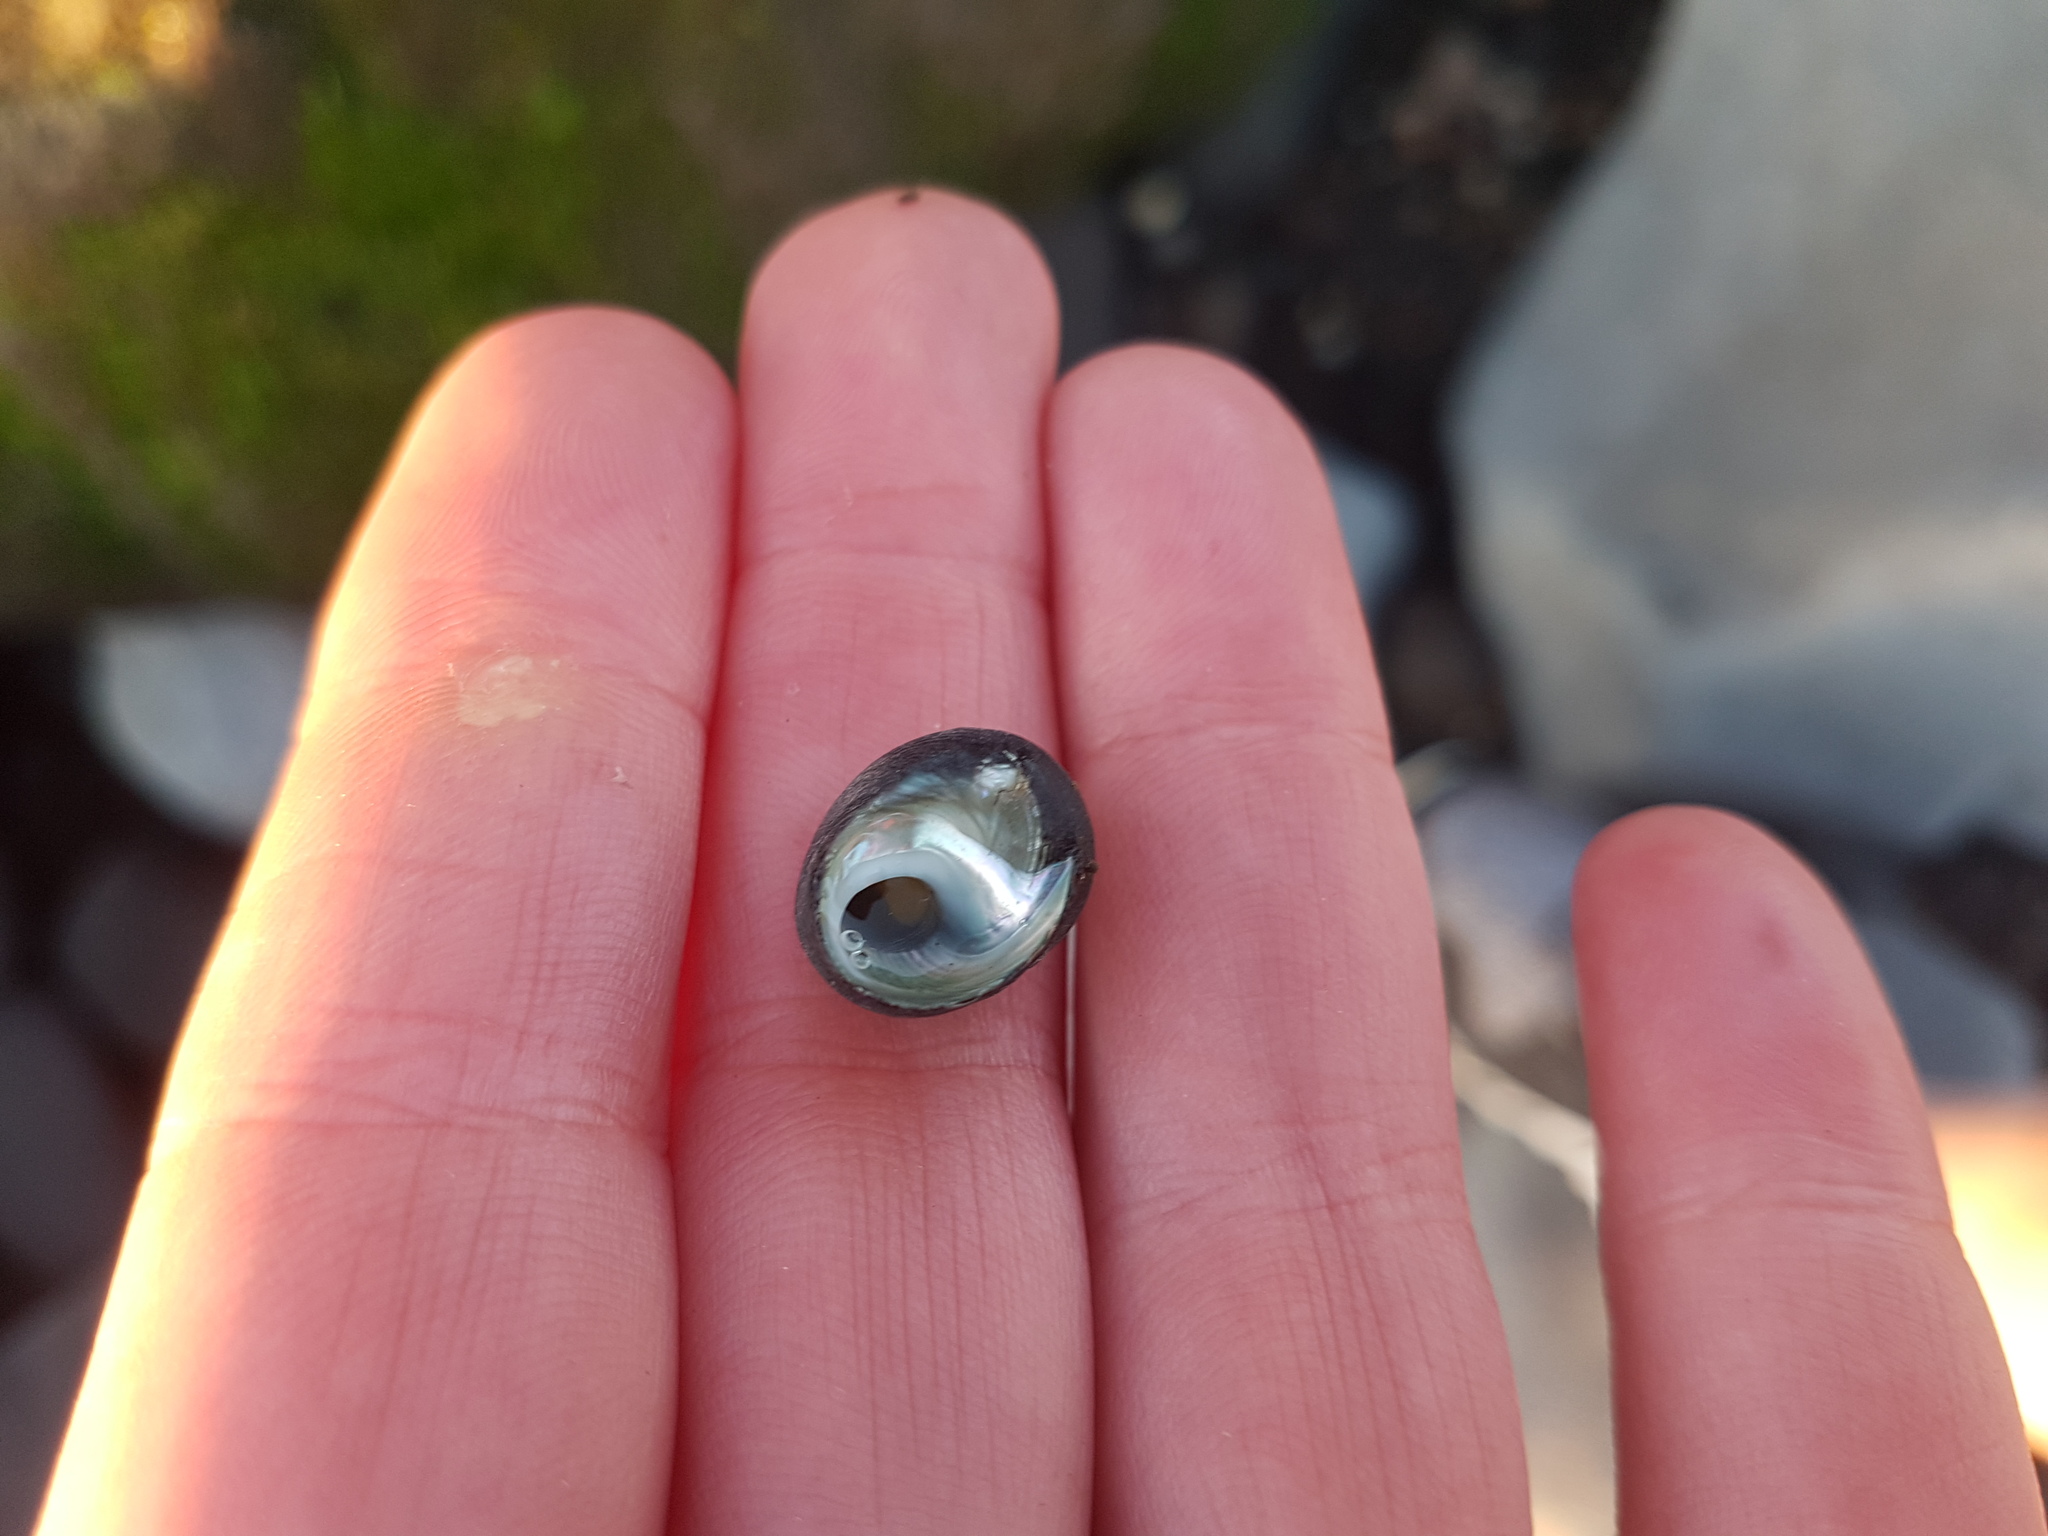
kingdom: Animalia
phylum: Mollusca
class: Gastropoda
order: Trochida
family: Trochidae
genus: Diloma
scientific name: Diloma nigerrimum
